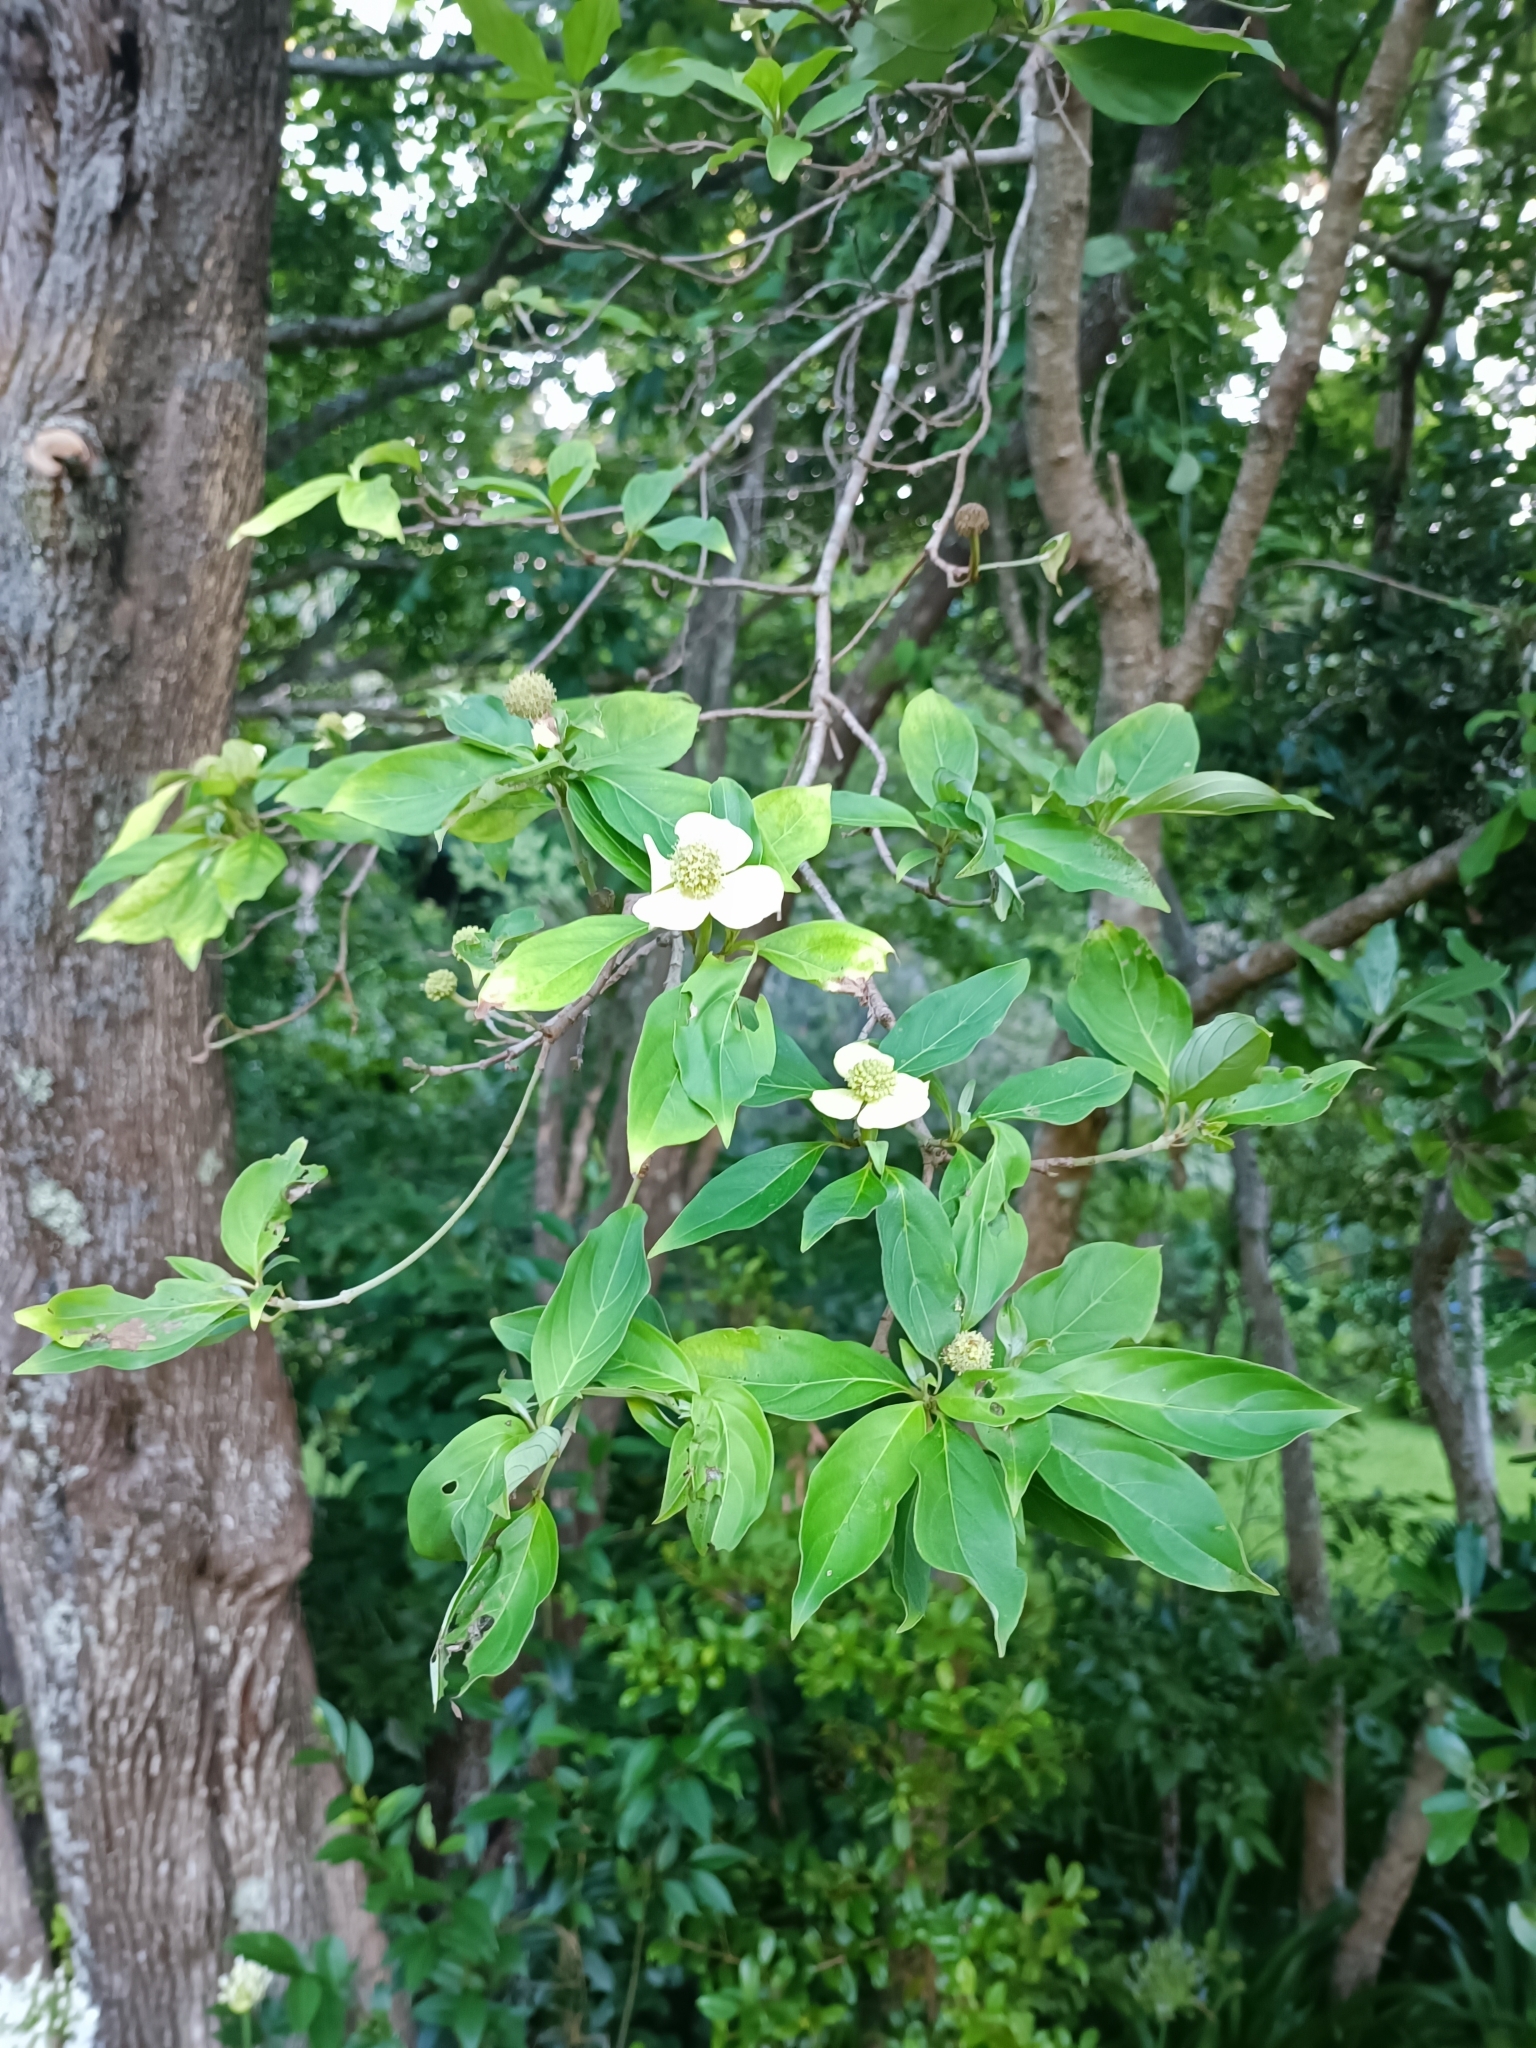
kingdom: Plantae
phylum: Tracheophyta
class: Magnoliopsida
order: Cornales
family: Cornaceae
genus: Cornus
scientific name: Cornus capitata
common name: Bentham's cornel
